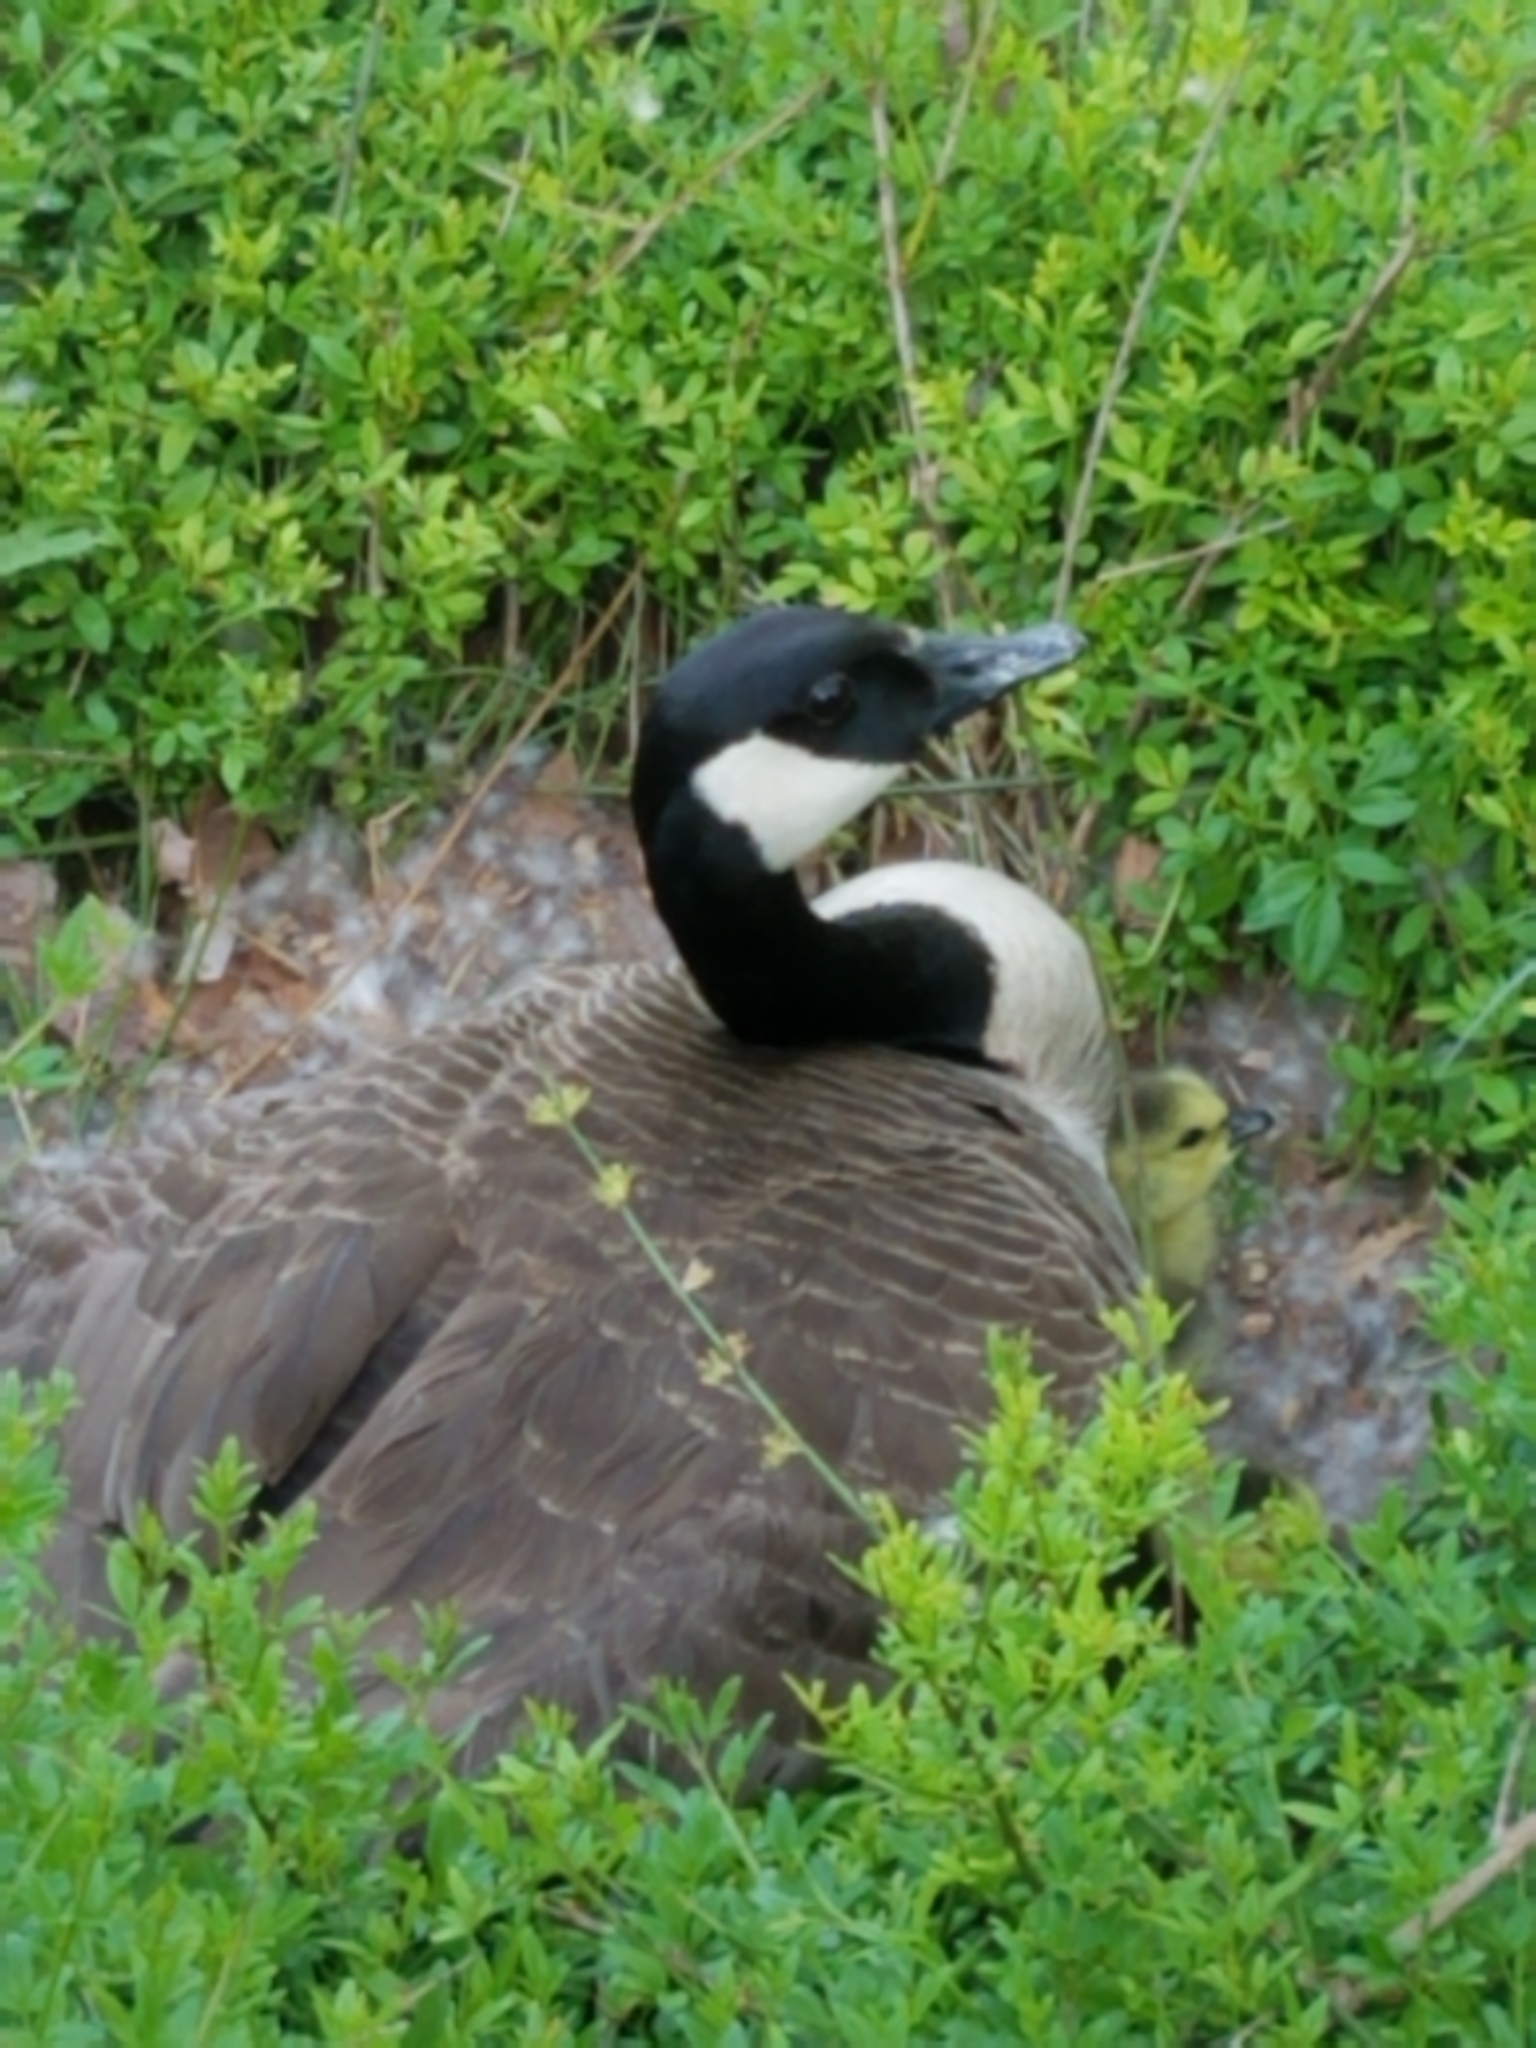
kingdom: Animalia
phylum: Chordata
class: Aves
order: Anseriformes
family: Anatidae
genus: Branta
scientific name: Branta canadensis
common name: Canada goose
